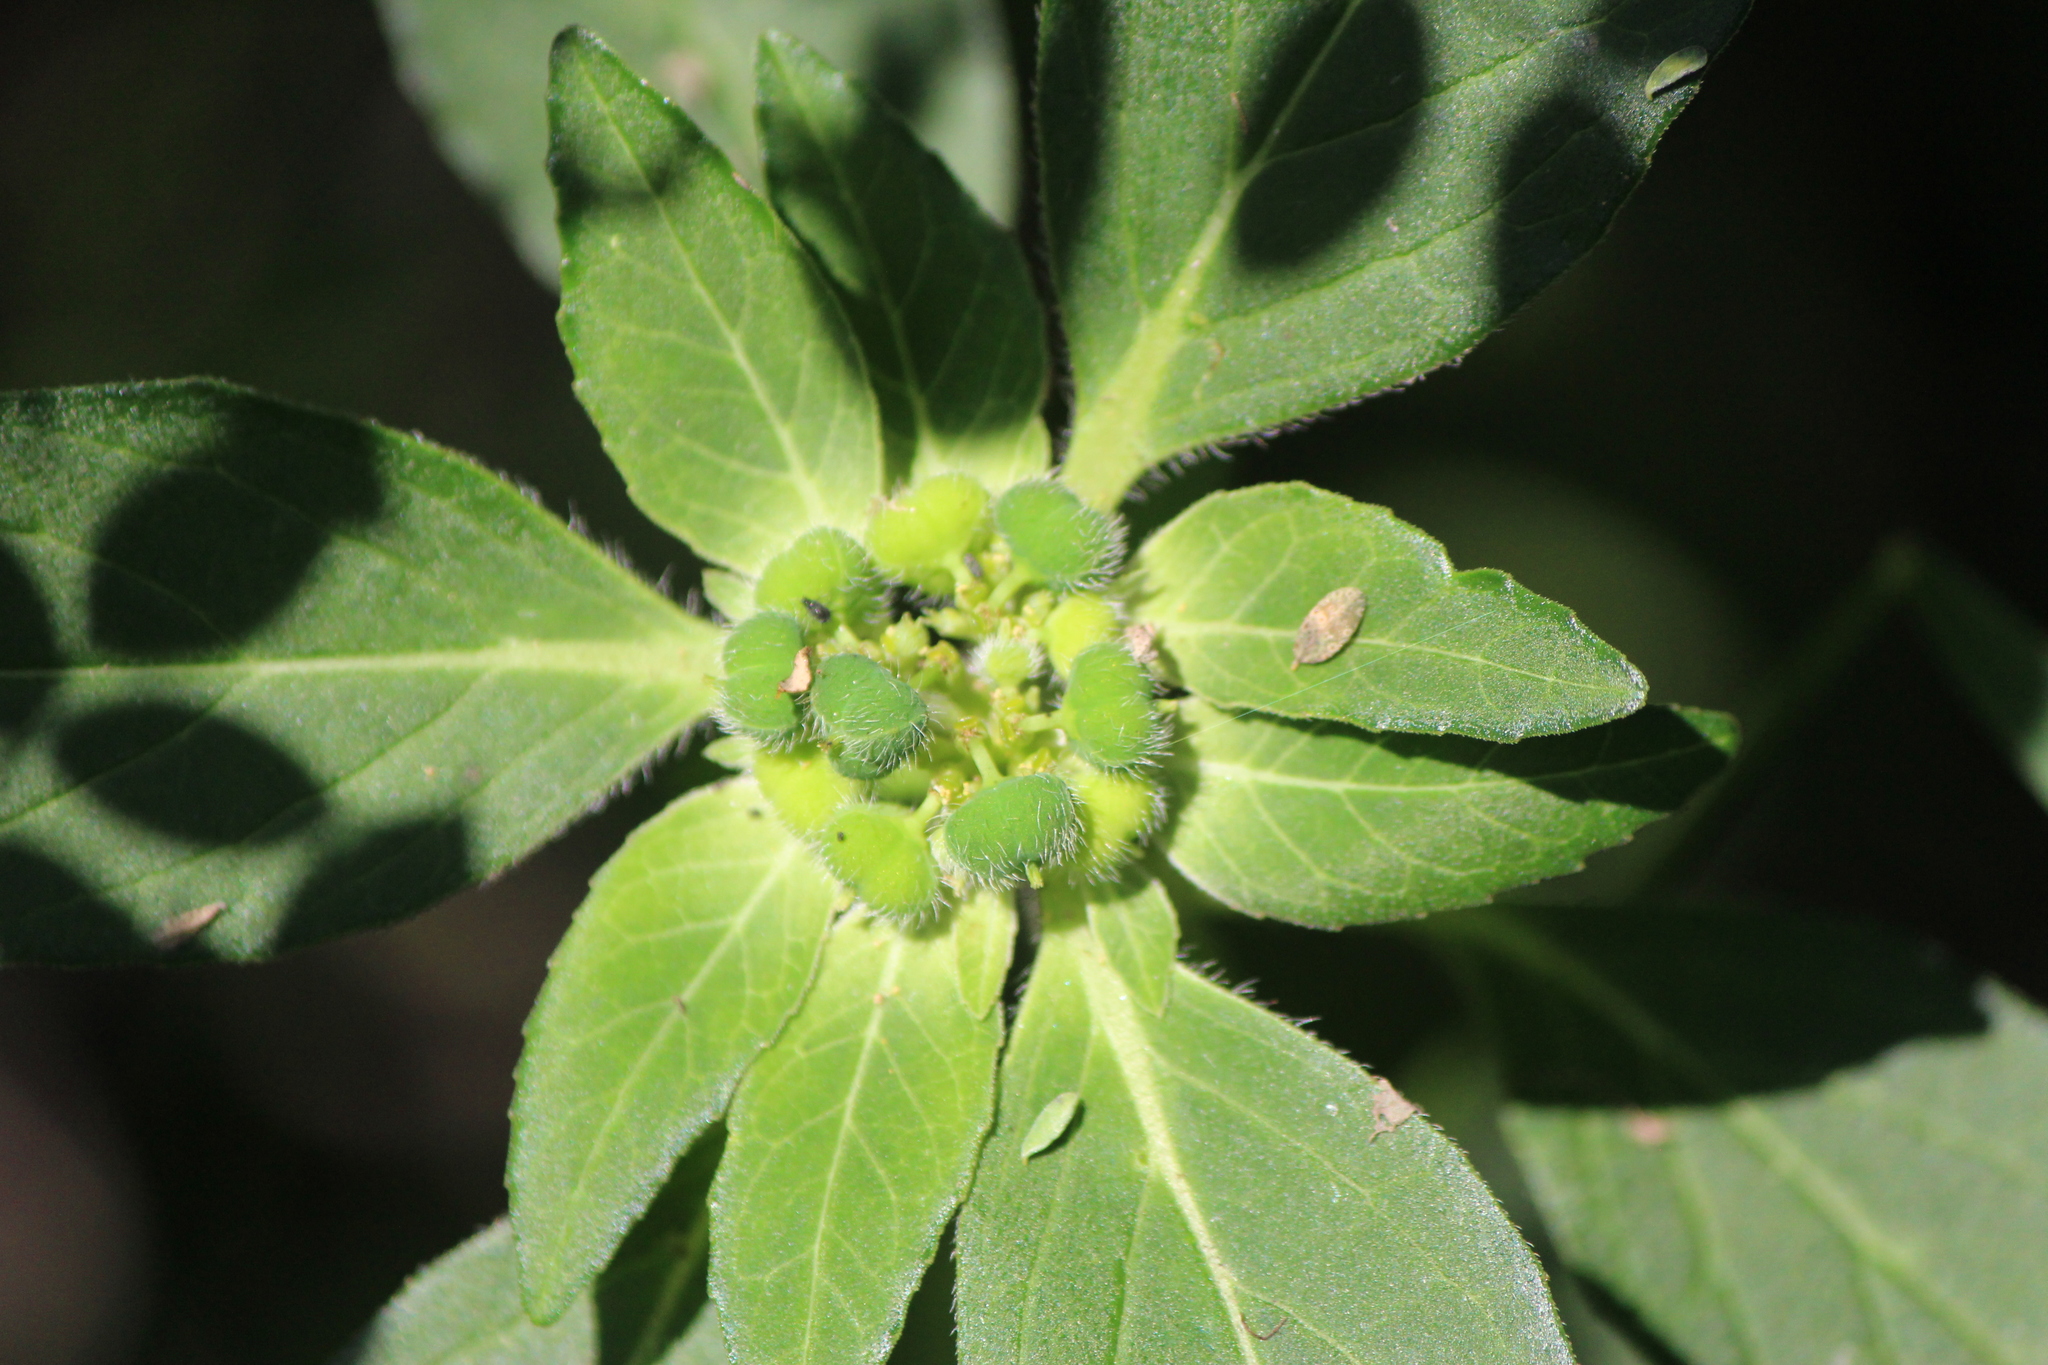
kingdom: Plantae
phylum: Tracheophyta
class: Magnoliopsida
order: Malpighiales
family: Euphorbiaceae
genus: Euphorbia
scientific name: Euphorbia cuphosperma
